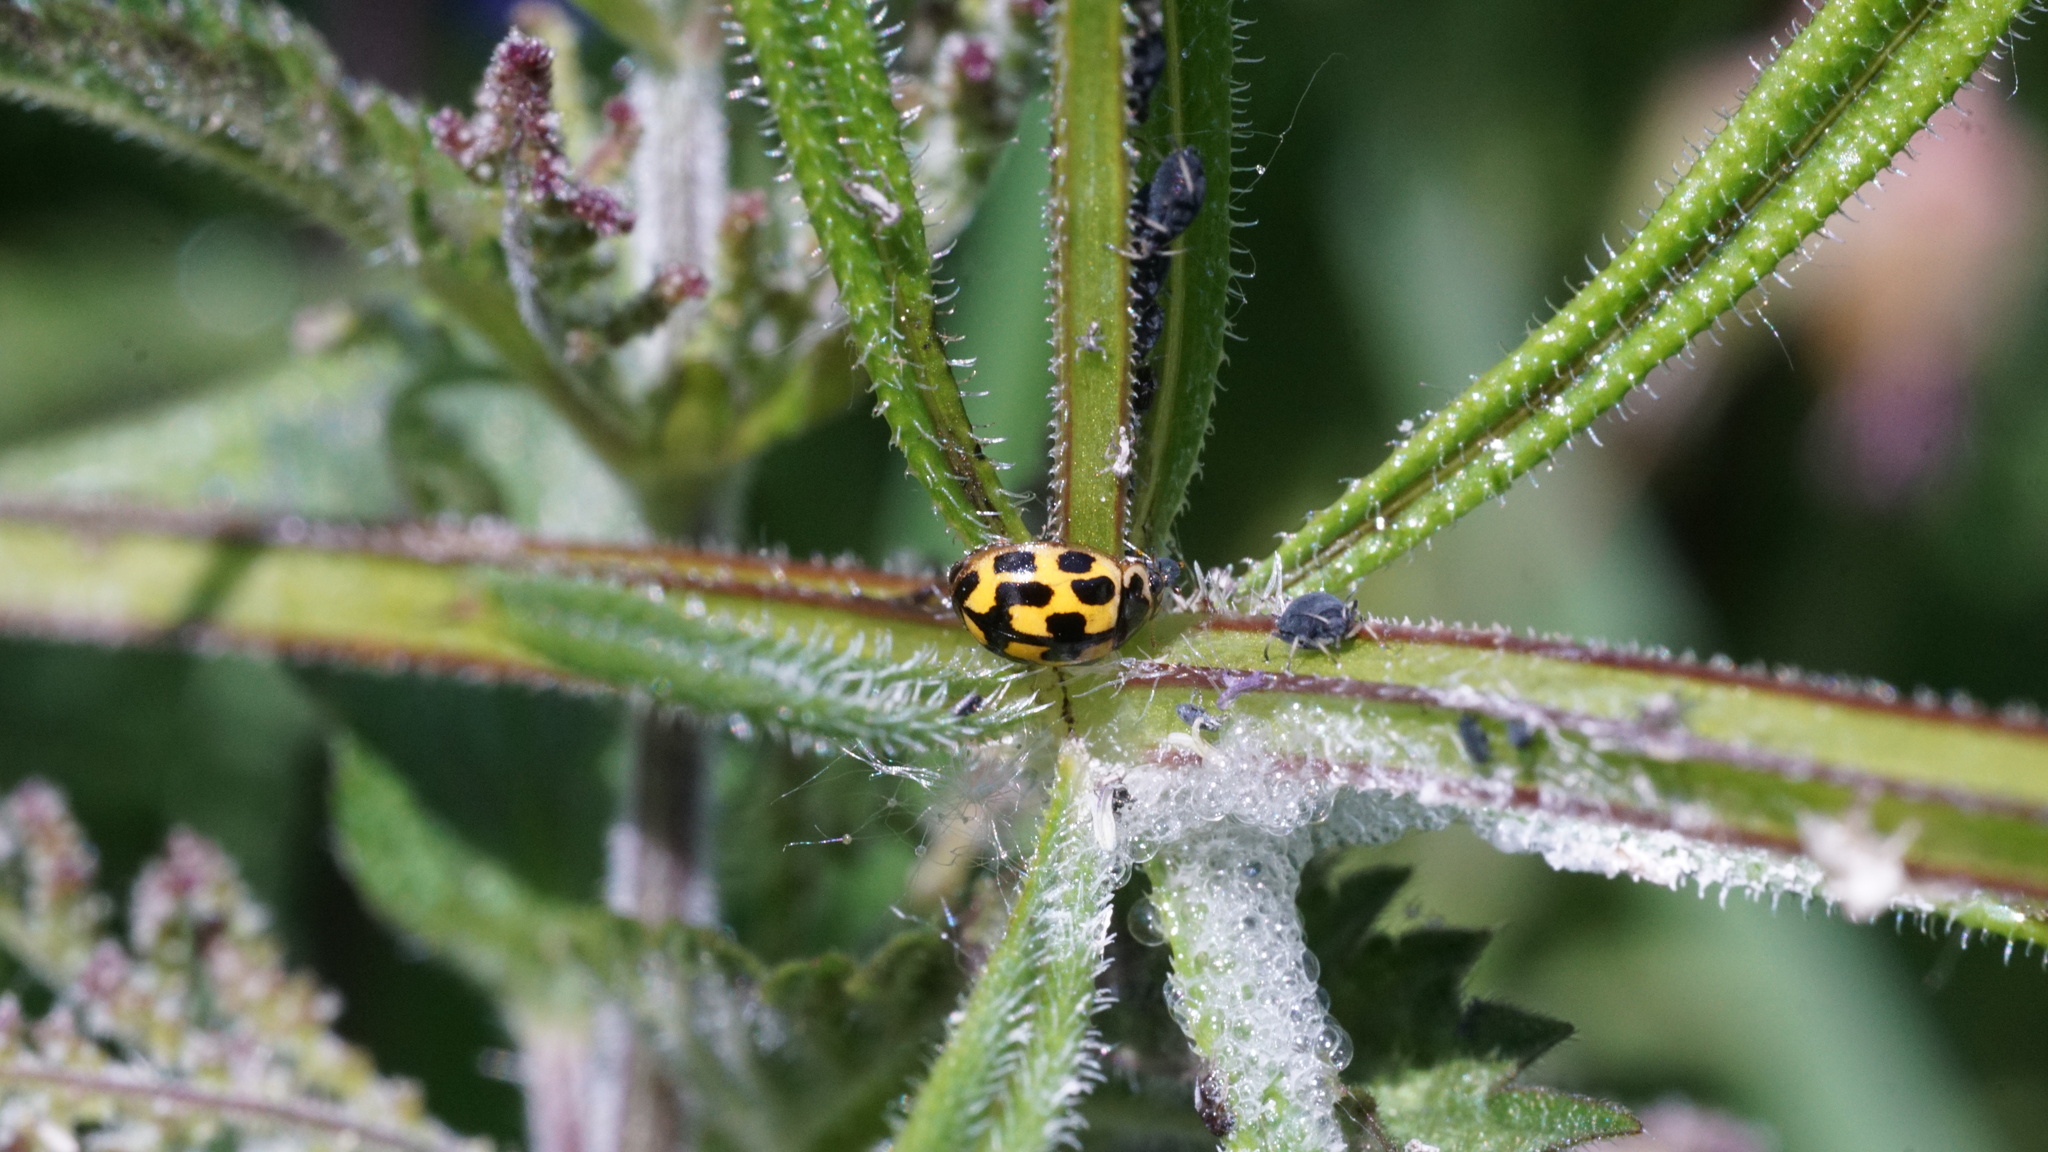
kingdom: Animalia
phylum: Arthropoda
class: Insecta
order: Coleoptera
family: Coccinellidae
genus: Propylaea
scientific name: Propylaea quatuordecimpunctata
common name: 14-spotted ladybird beetle
